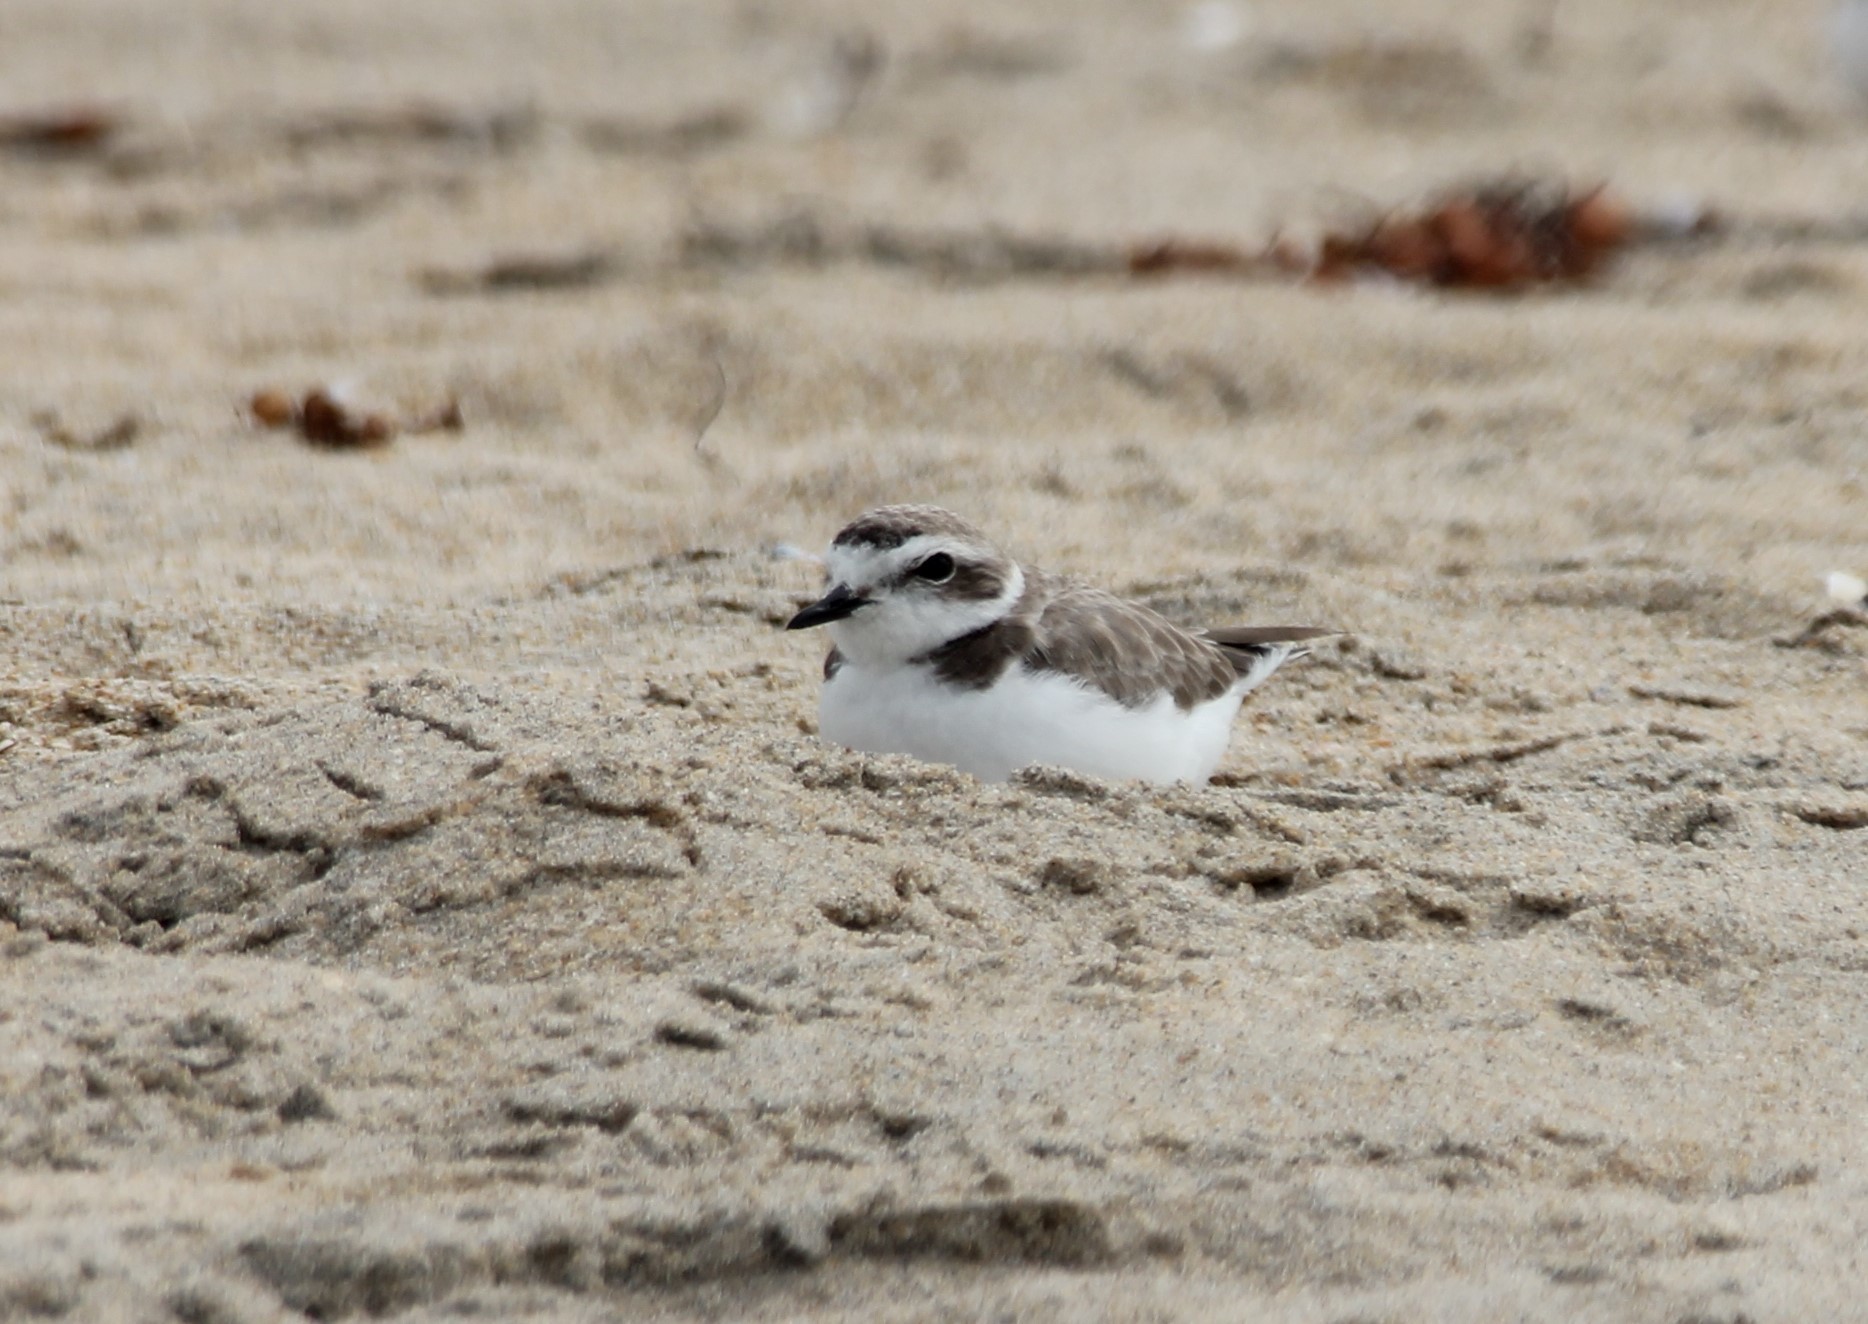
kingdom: Animalia
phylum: Chordata
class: Aves
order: Charadriiformes
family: Charadriidae
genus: Anarhynchus
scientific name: Anarhynchus
